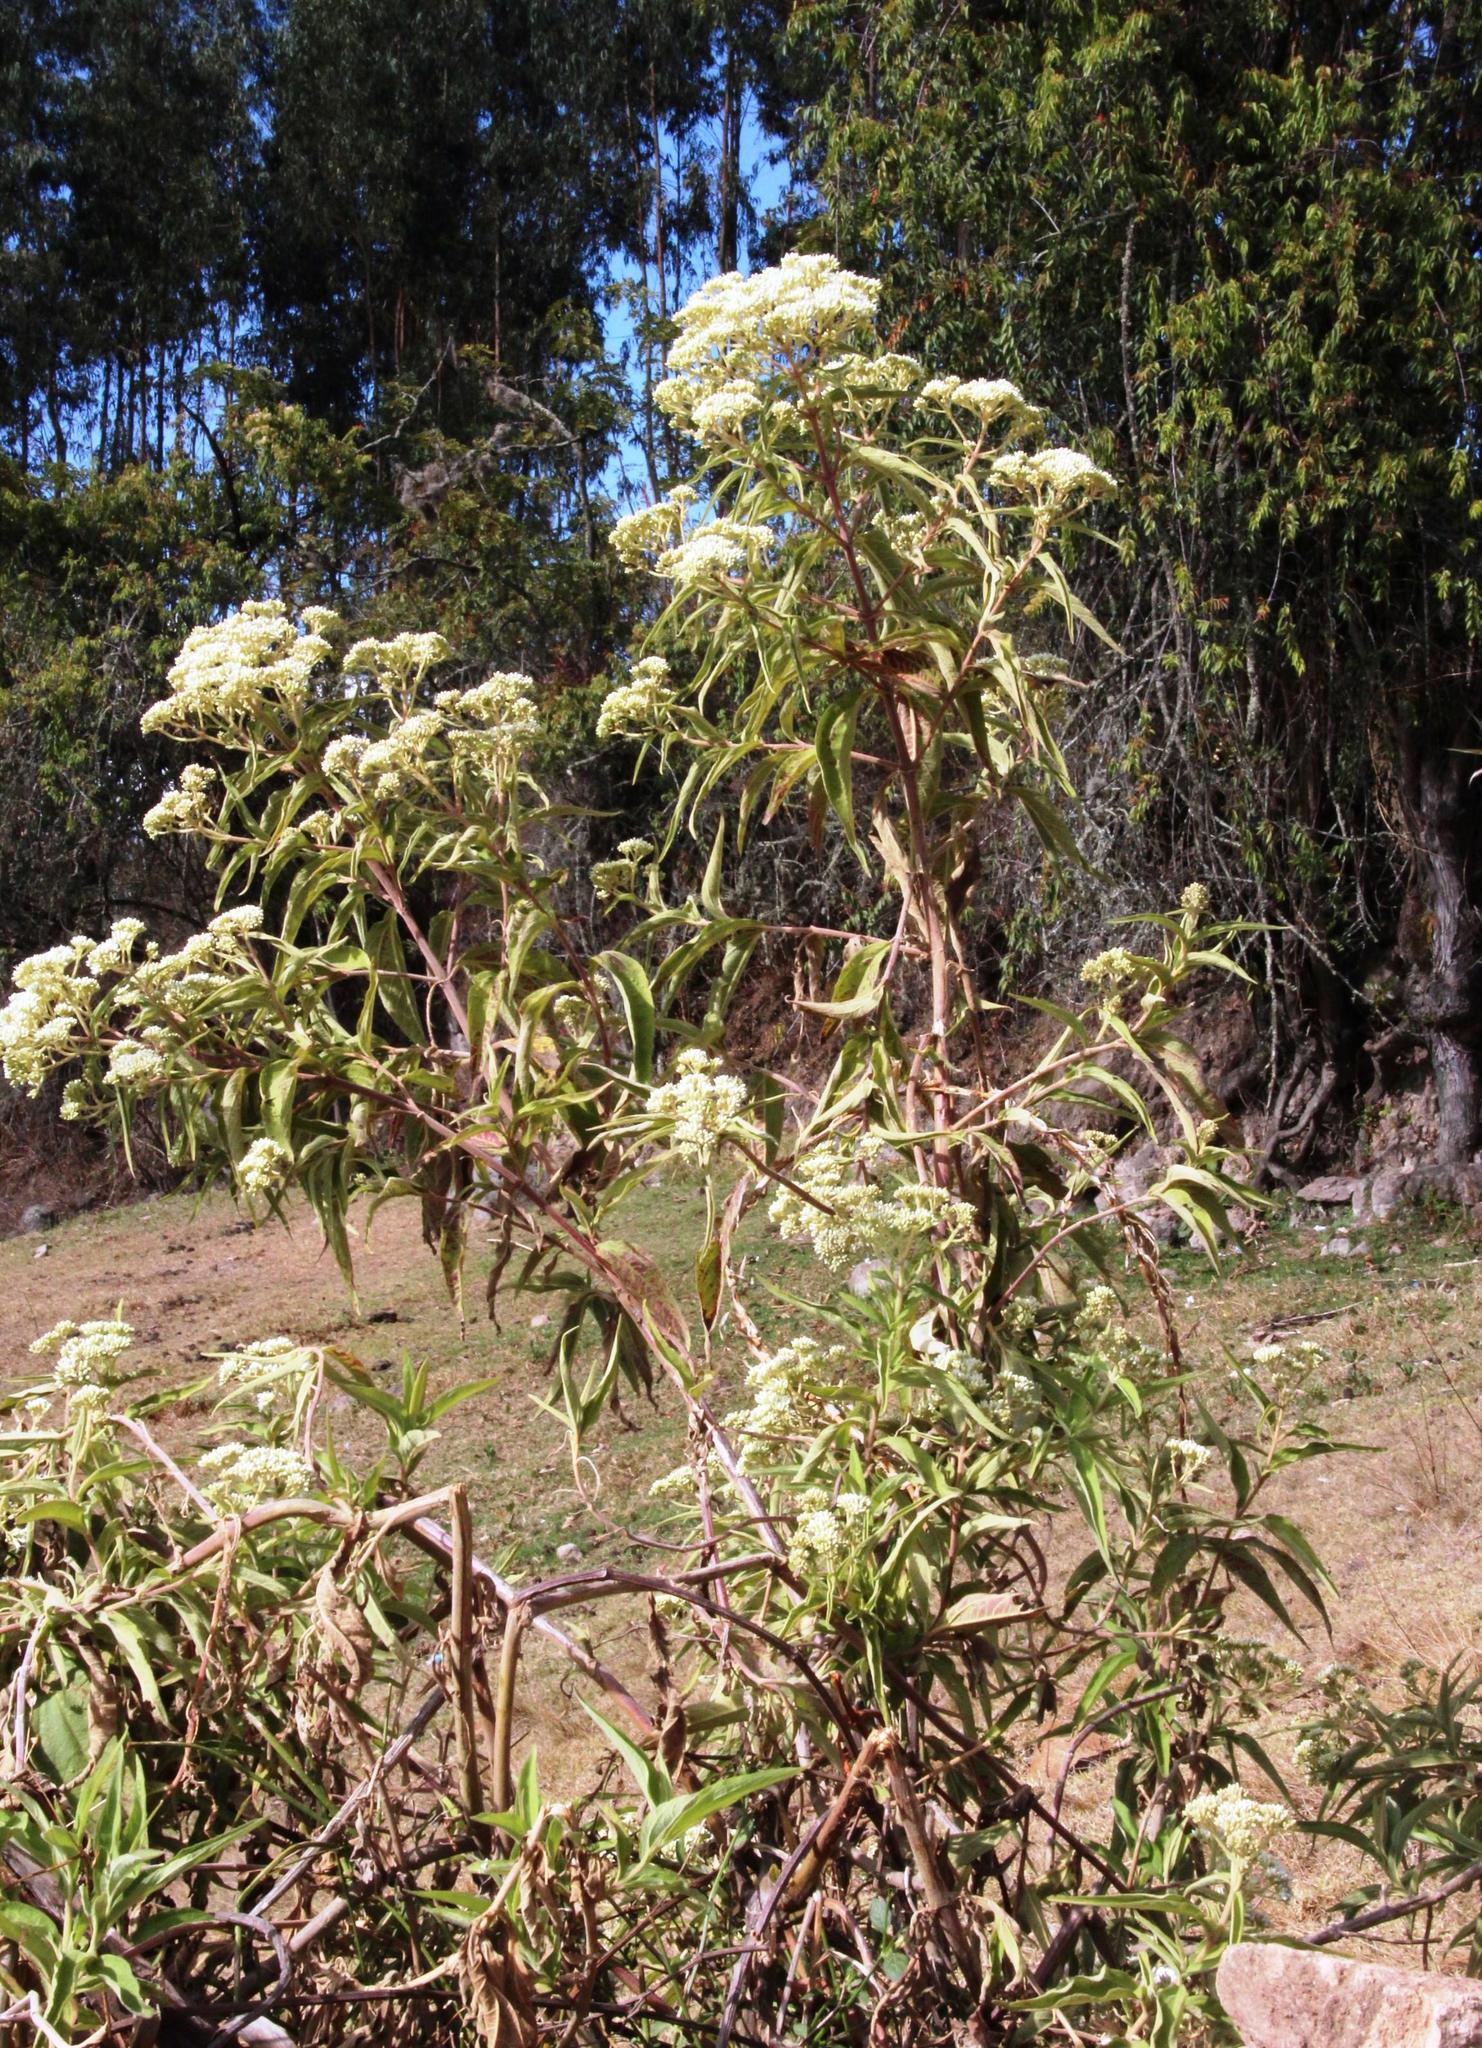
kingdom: Plantae
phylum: Tracheophyta
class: Magnoliopsida
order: Asterales
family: Asteraceae
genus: Austroeupatorium
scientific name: Austroeupatorium inulifolium
